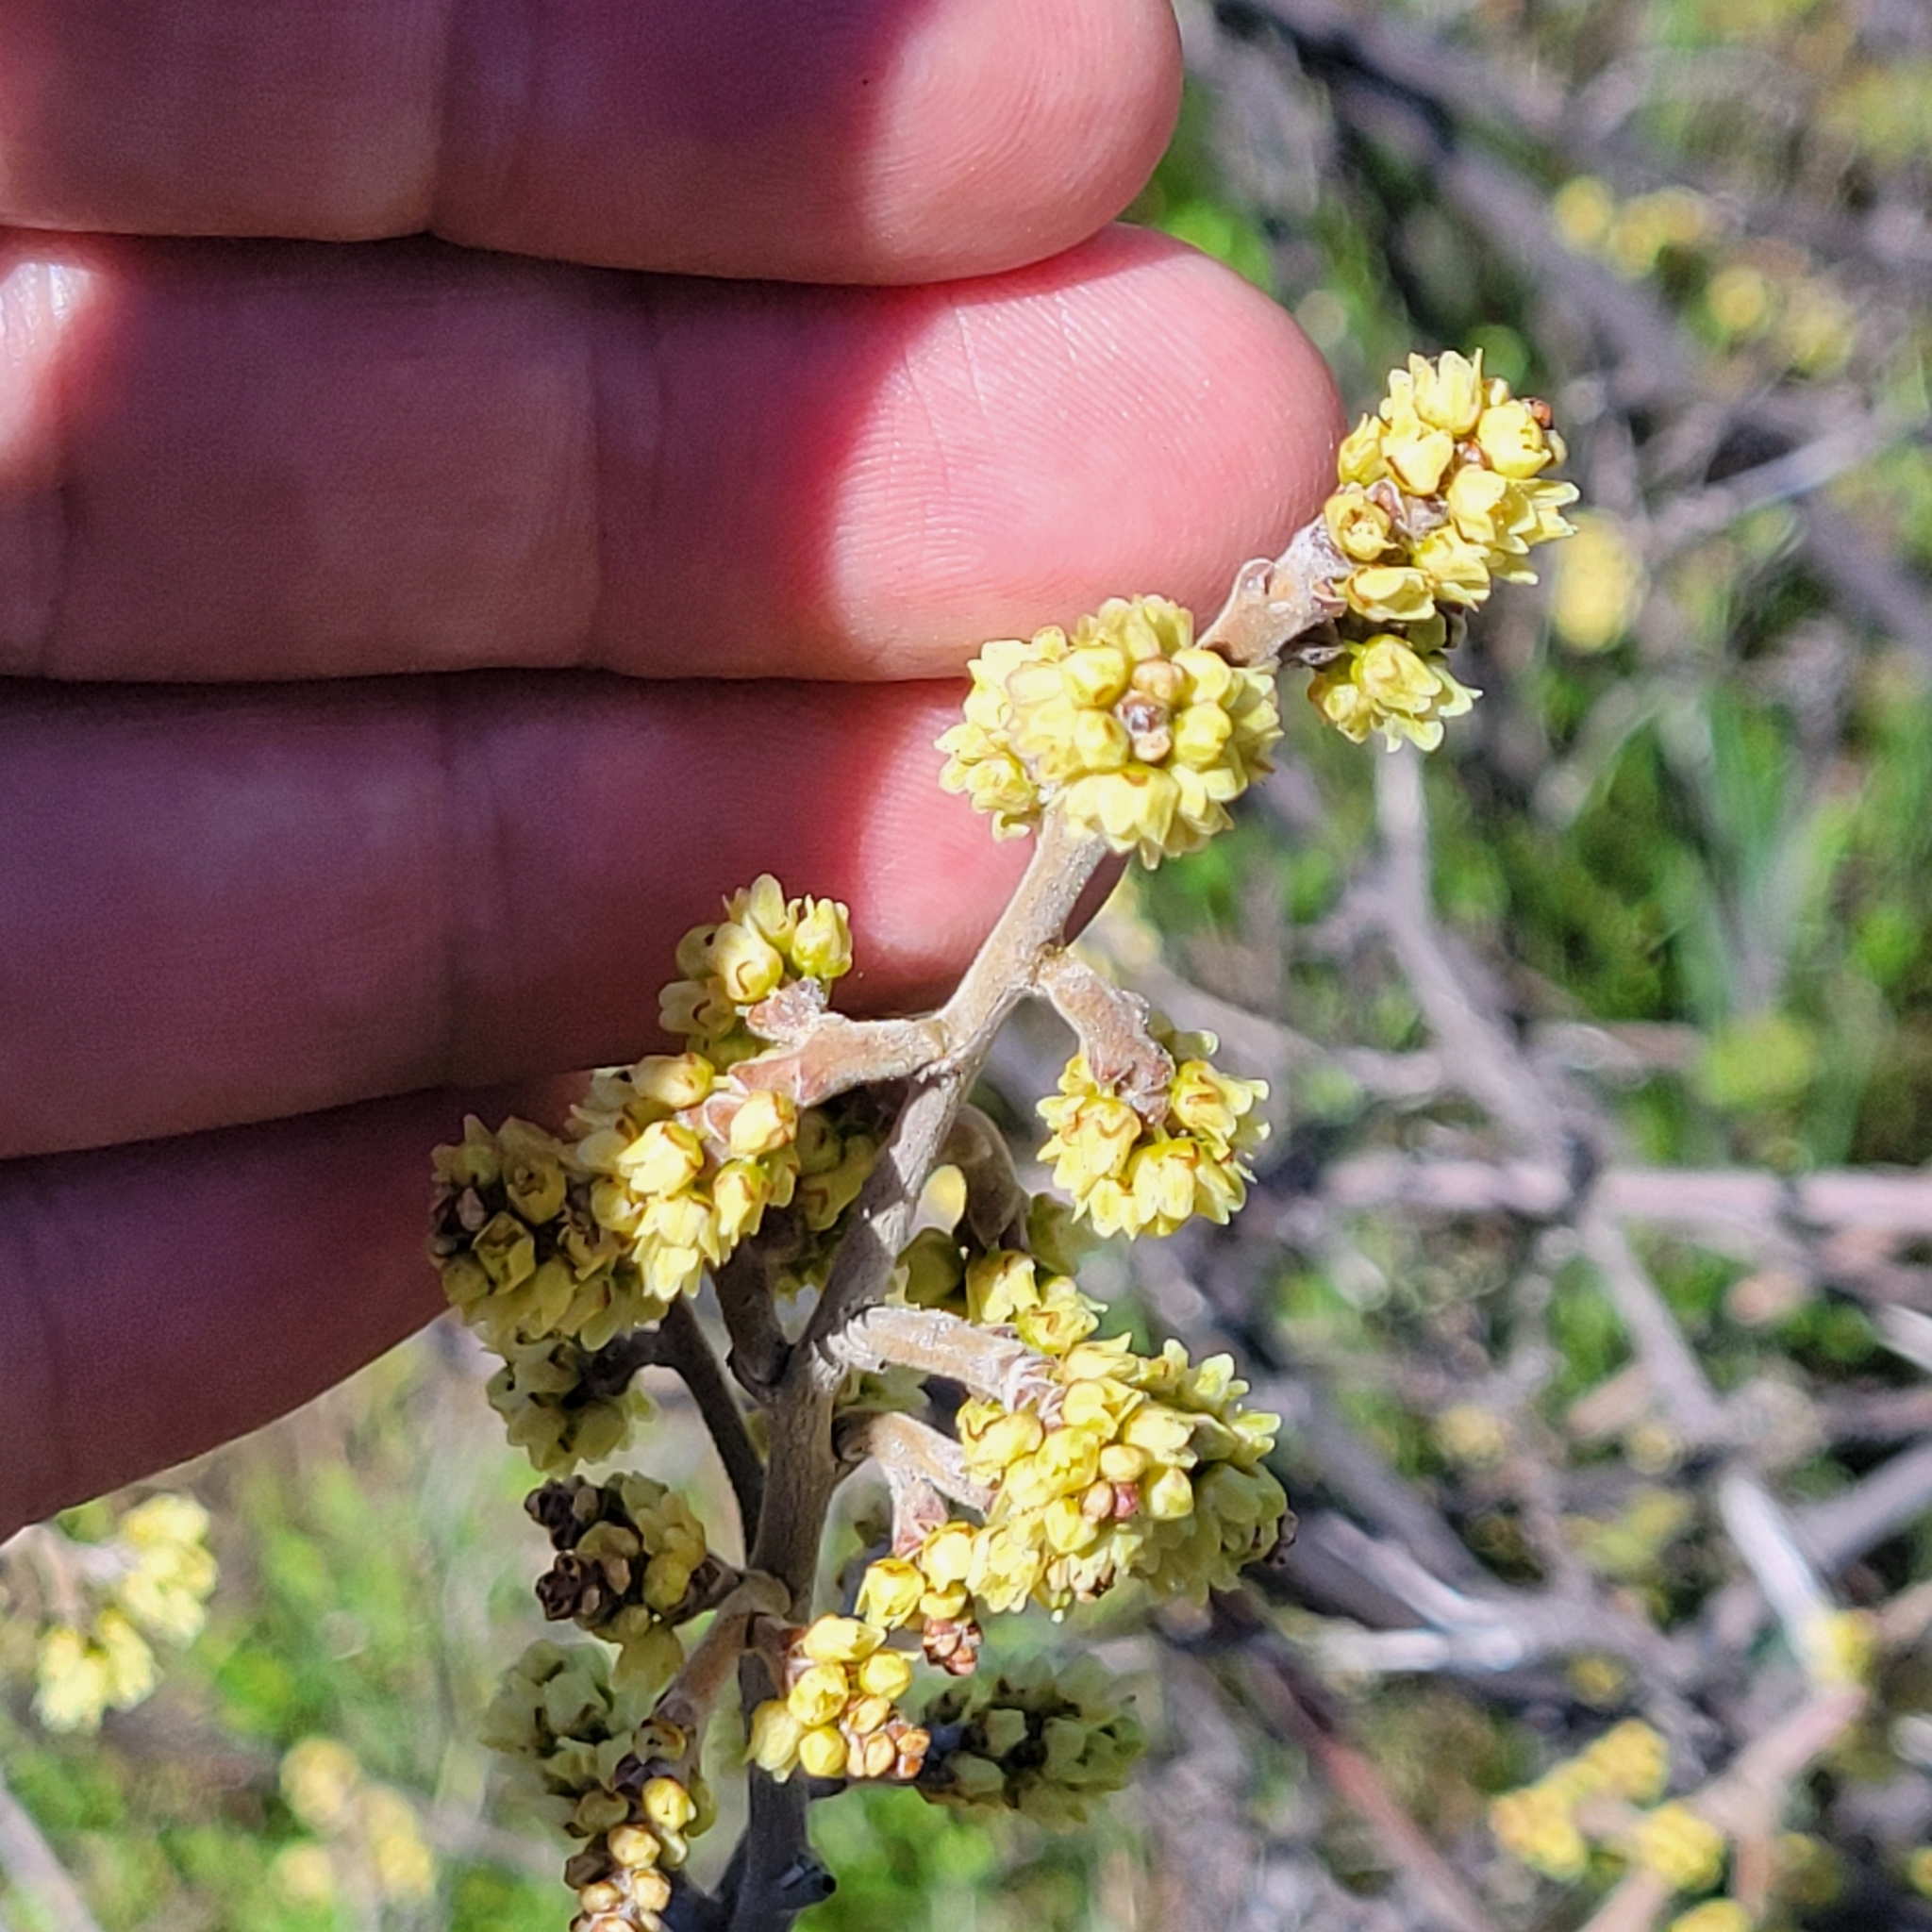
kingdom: Plantae
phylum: Tracheophyta
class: Magnoliopsida
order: Sapindales
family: Anacardiaceae
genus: Rhus
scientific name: Rhus aromatica
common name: Aromatic sumac
